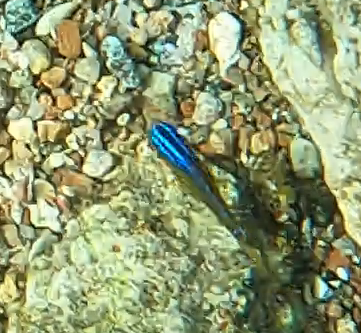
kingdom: Animalia
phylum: Chordata
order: Perciformes
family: Pomacentridae
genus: Chrysiptera
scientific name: Chrysiptera unimaculata
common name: Onespot demoiselle
